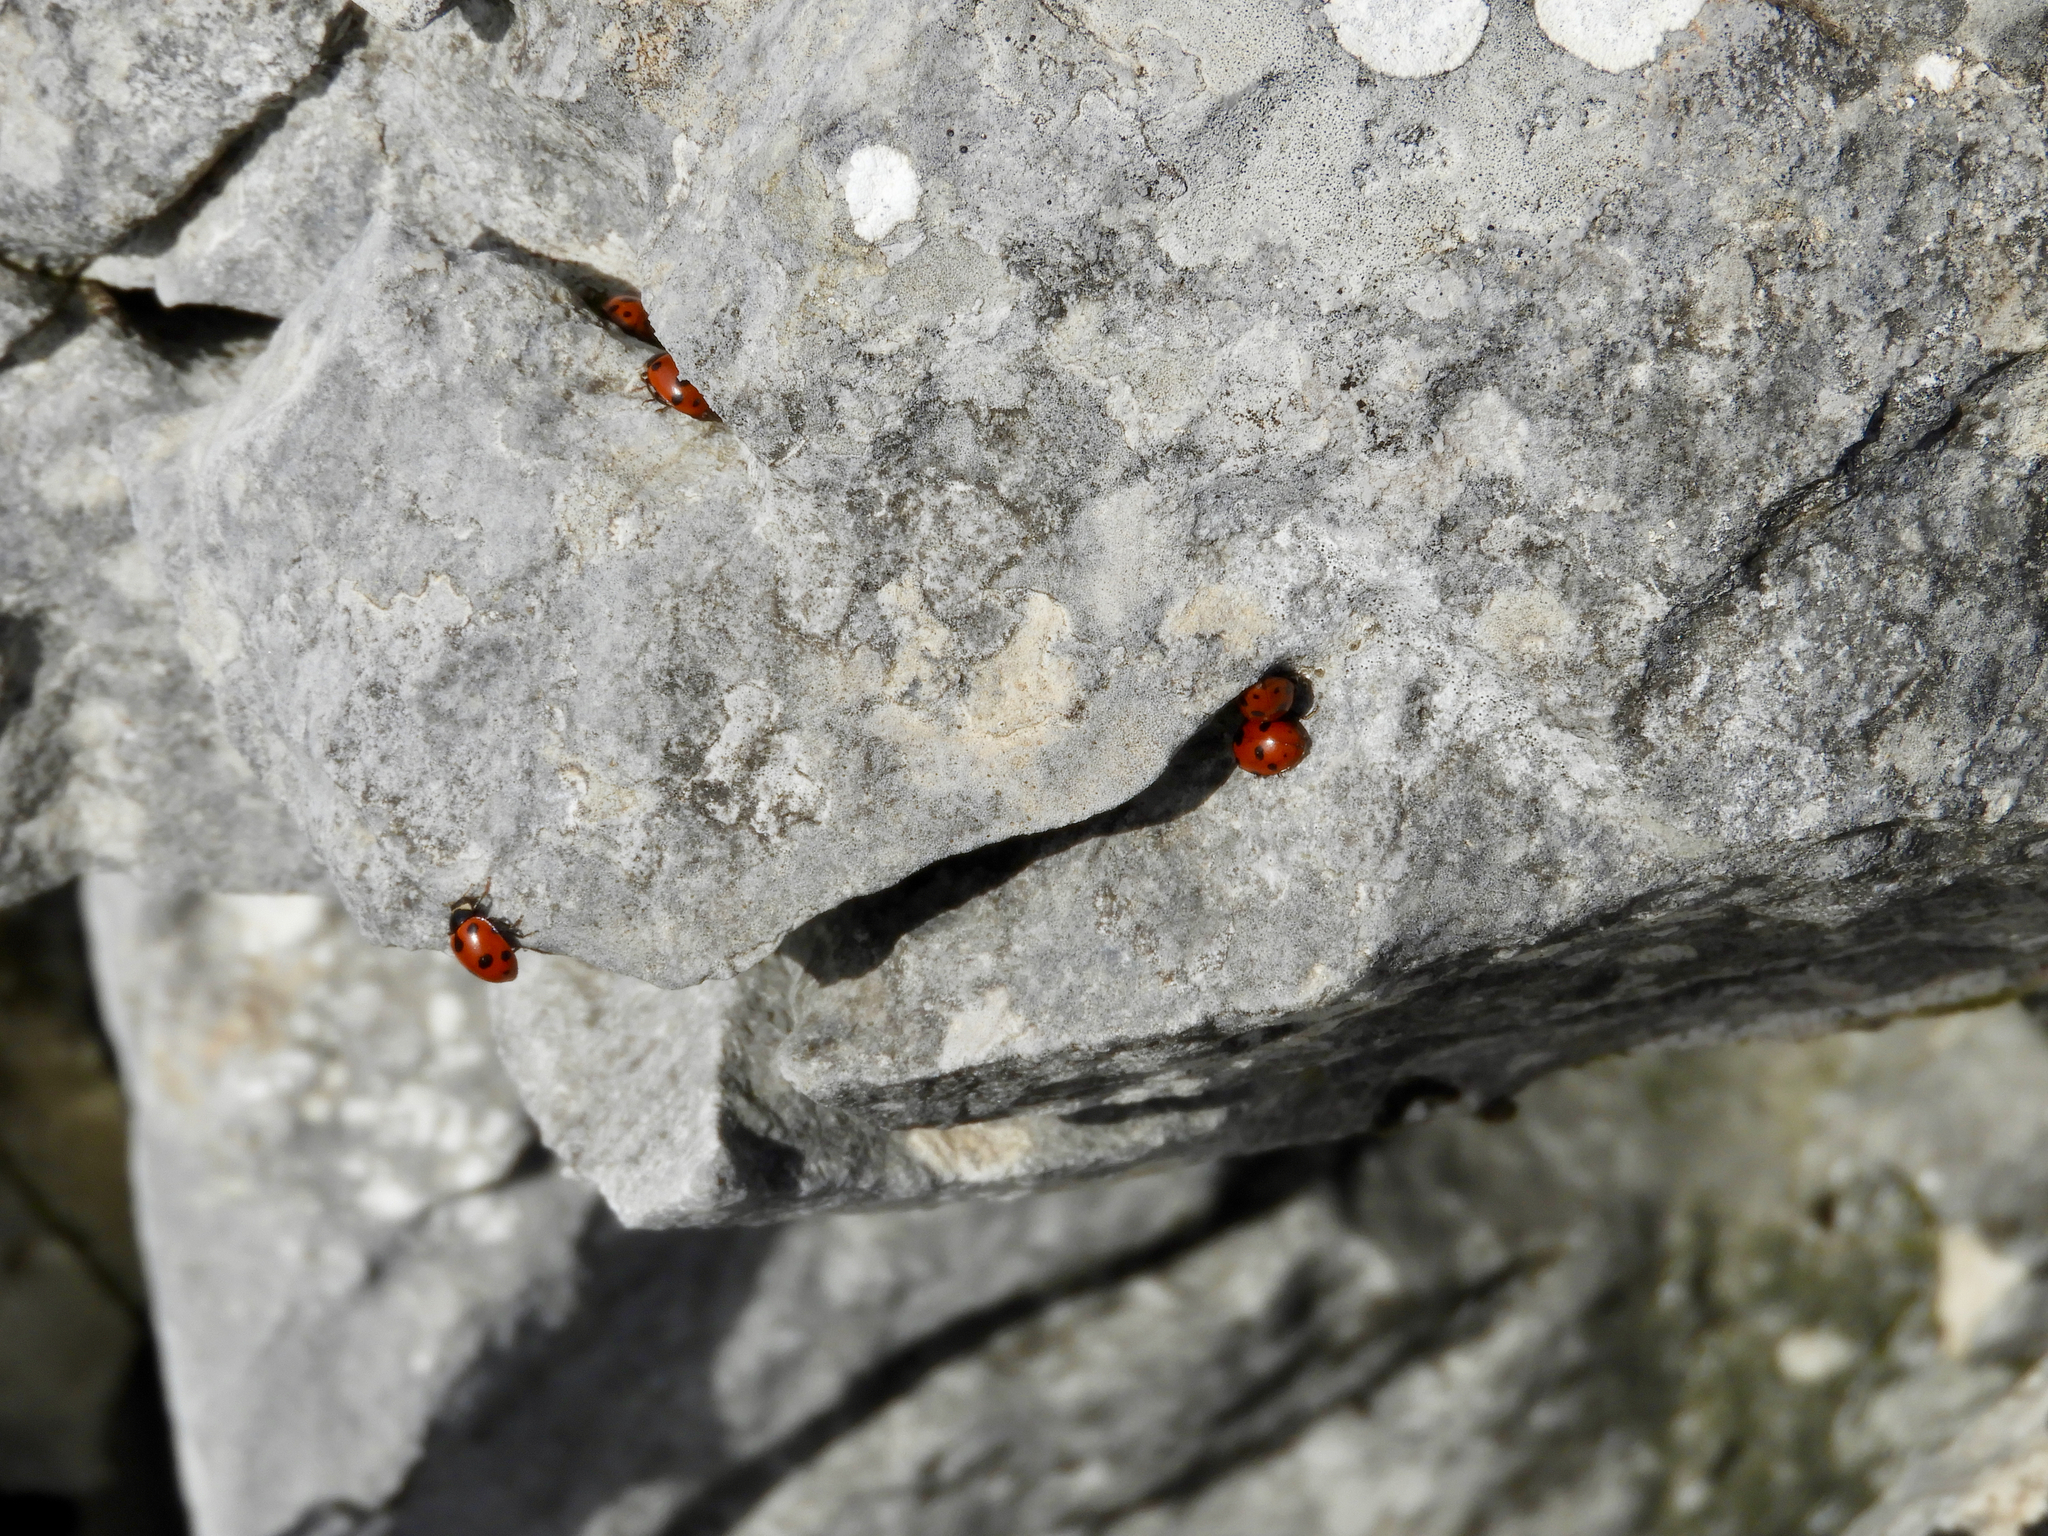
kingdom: Animalia
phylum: Arthropoda
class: Insecta
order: Coleoptera
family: Coccinellidae
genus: Ceratomegilla
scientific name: Ceratomegilla undecimnotata
